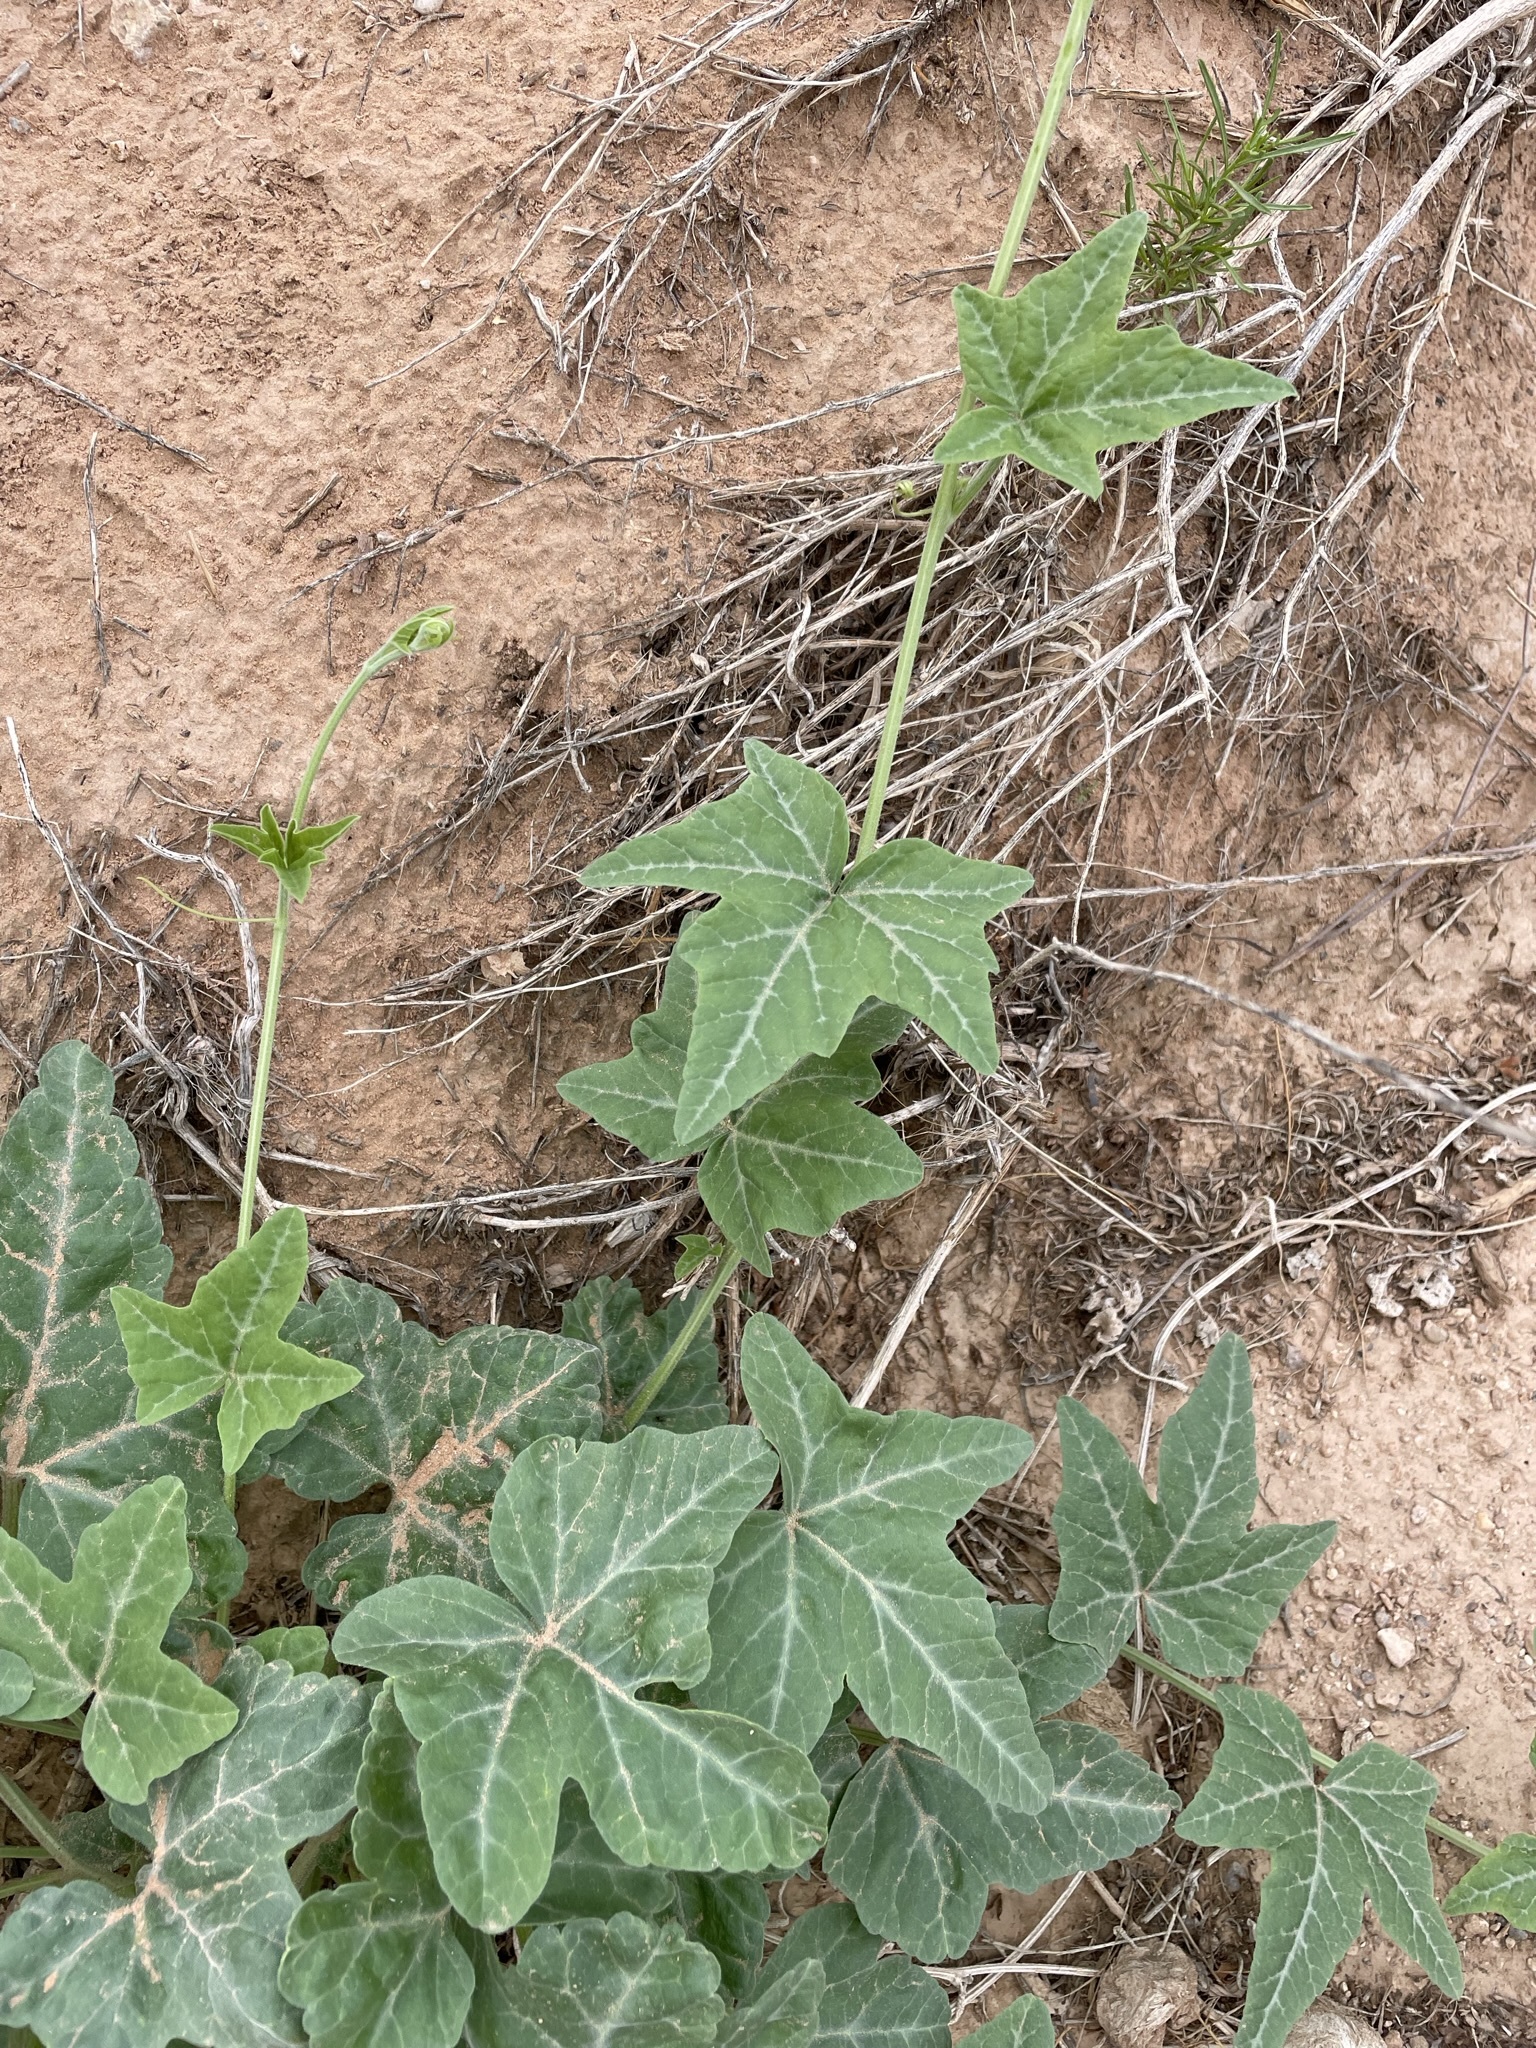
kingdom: Plantae
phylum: Tracheophyta
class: Magnoliopsida
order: Cucurbitales
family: Cucurbitaceae
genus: Cucurbita
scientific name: Cucurbita palmata
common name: Coyote-melon
